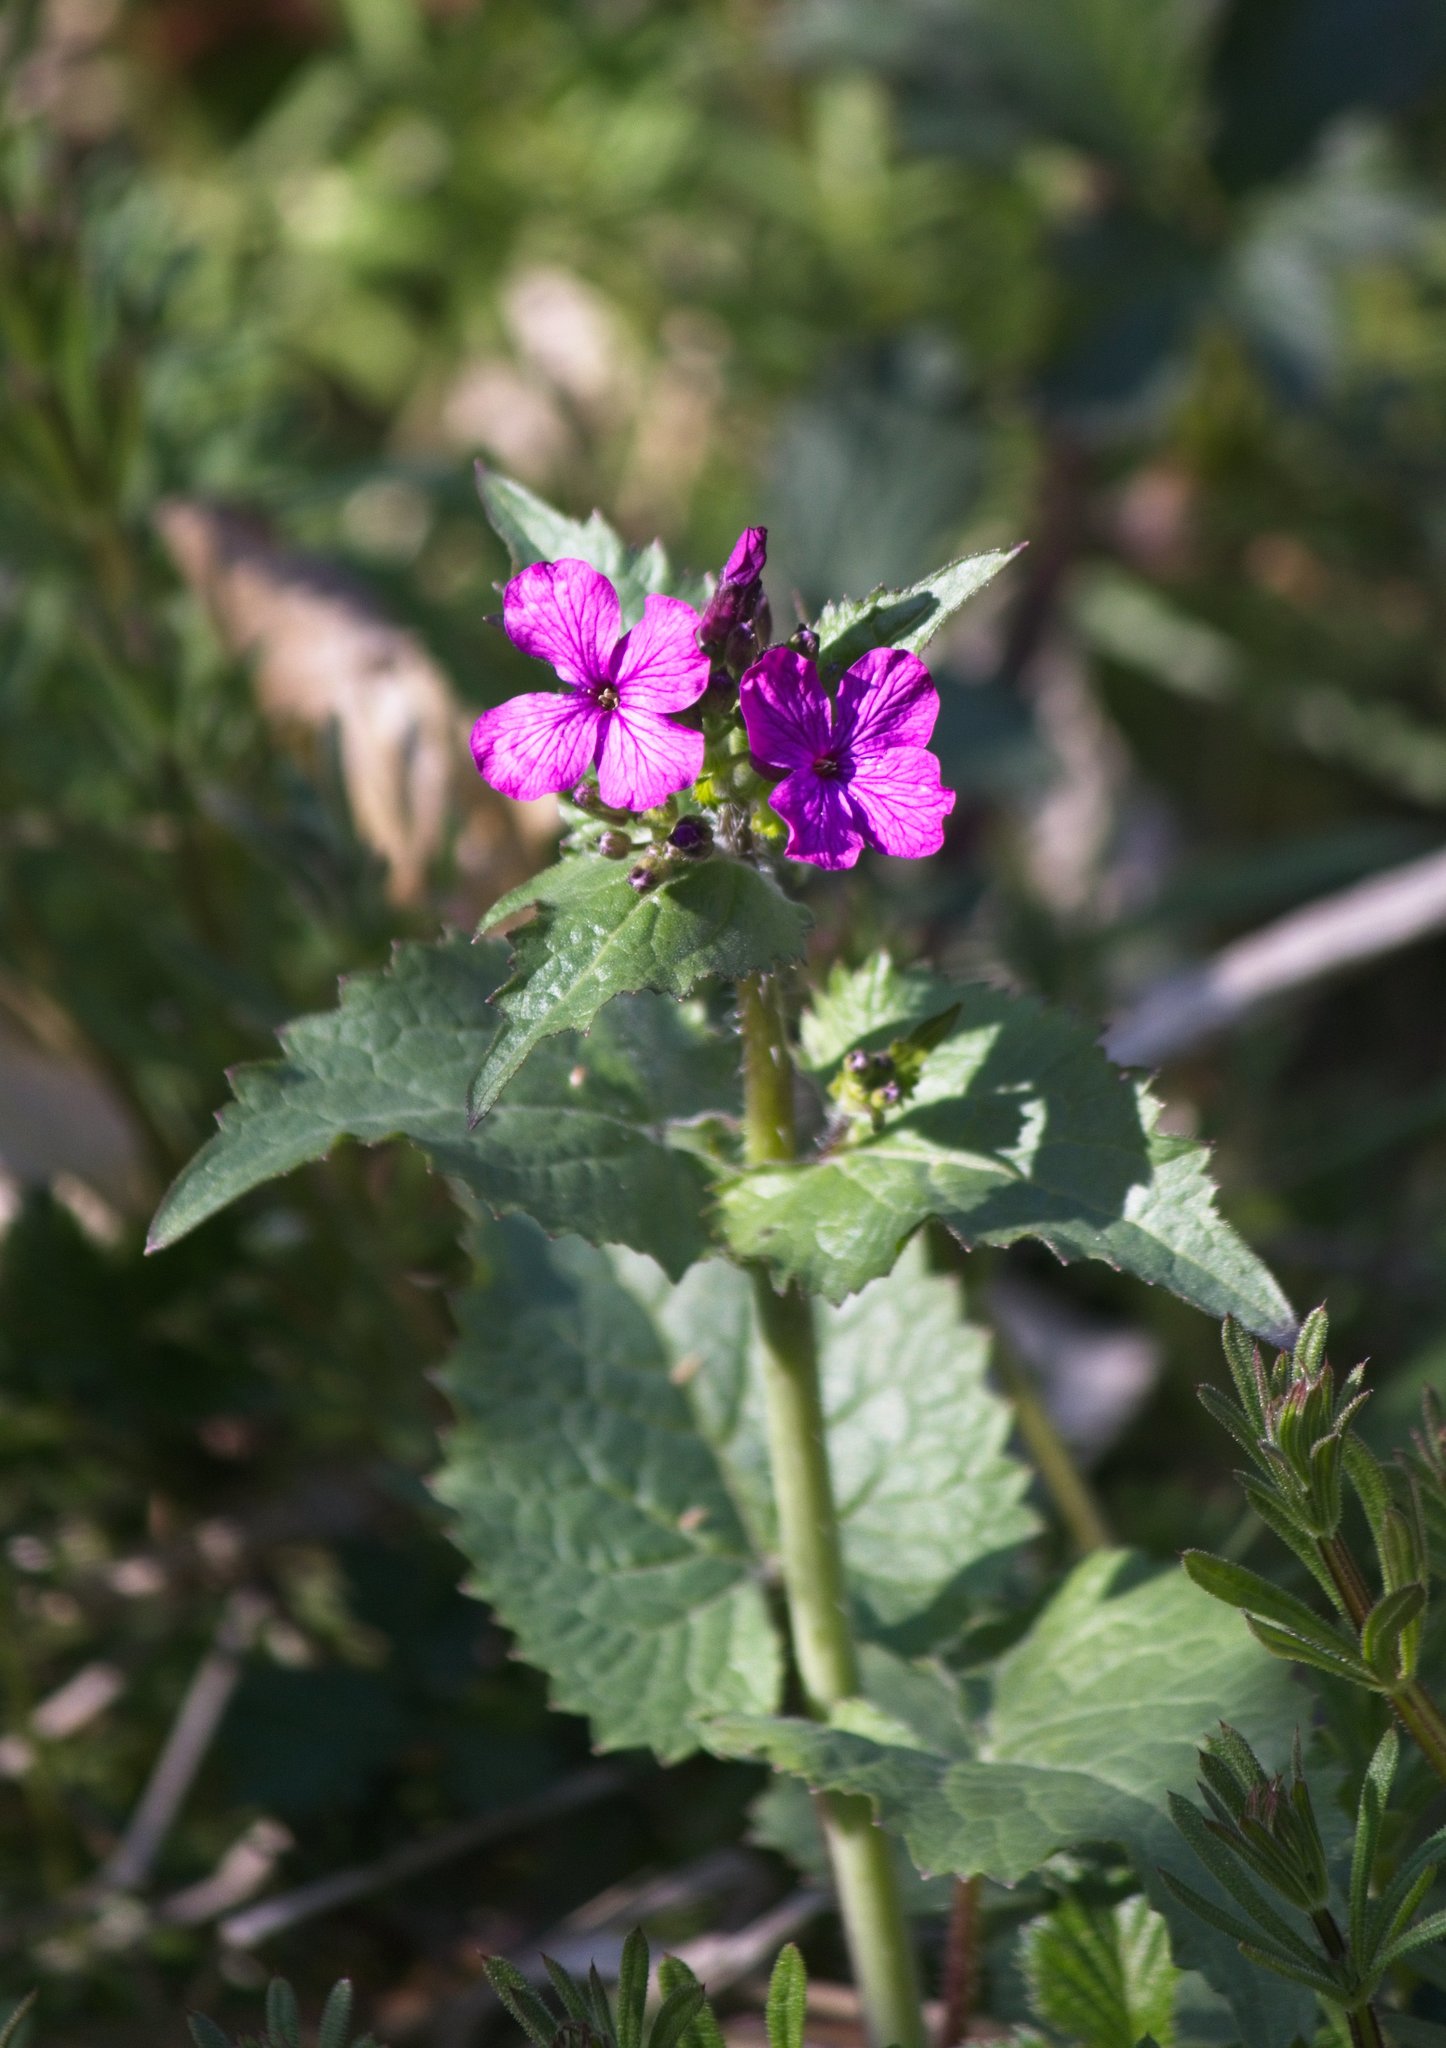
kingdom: Plantae
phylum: Tracheophyta
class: Magnoliopsida
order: Brassicales
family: Brassicaceae
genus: Lunaria
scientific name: Lunaria annua
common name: Honesty
